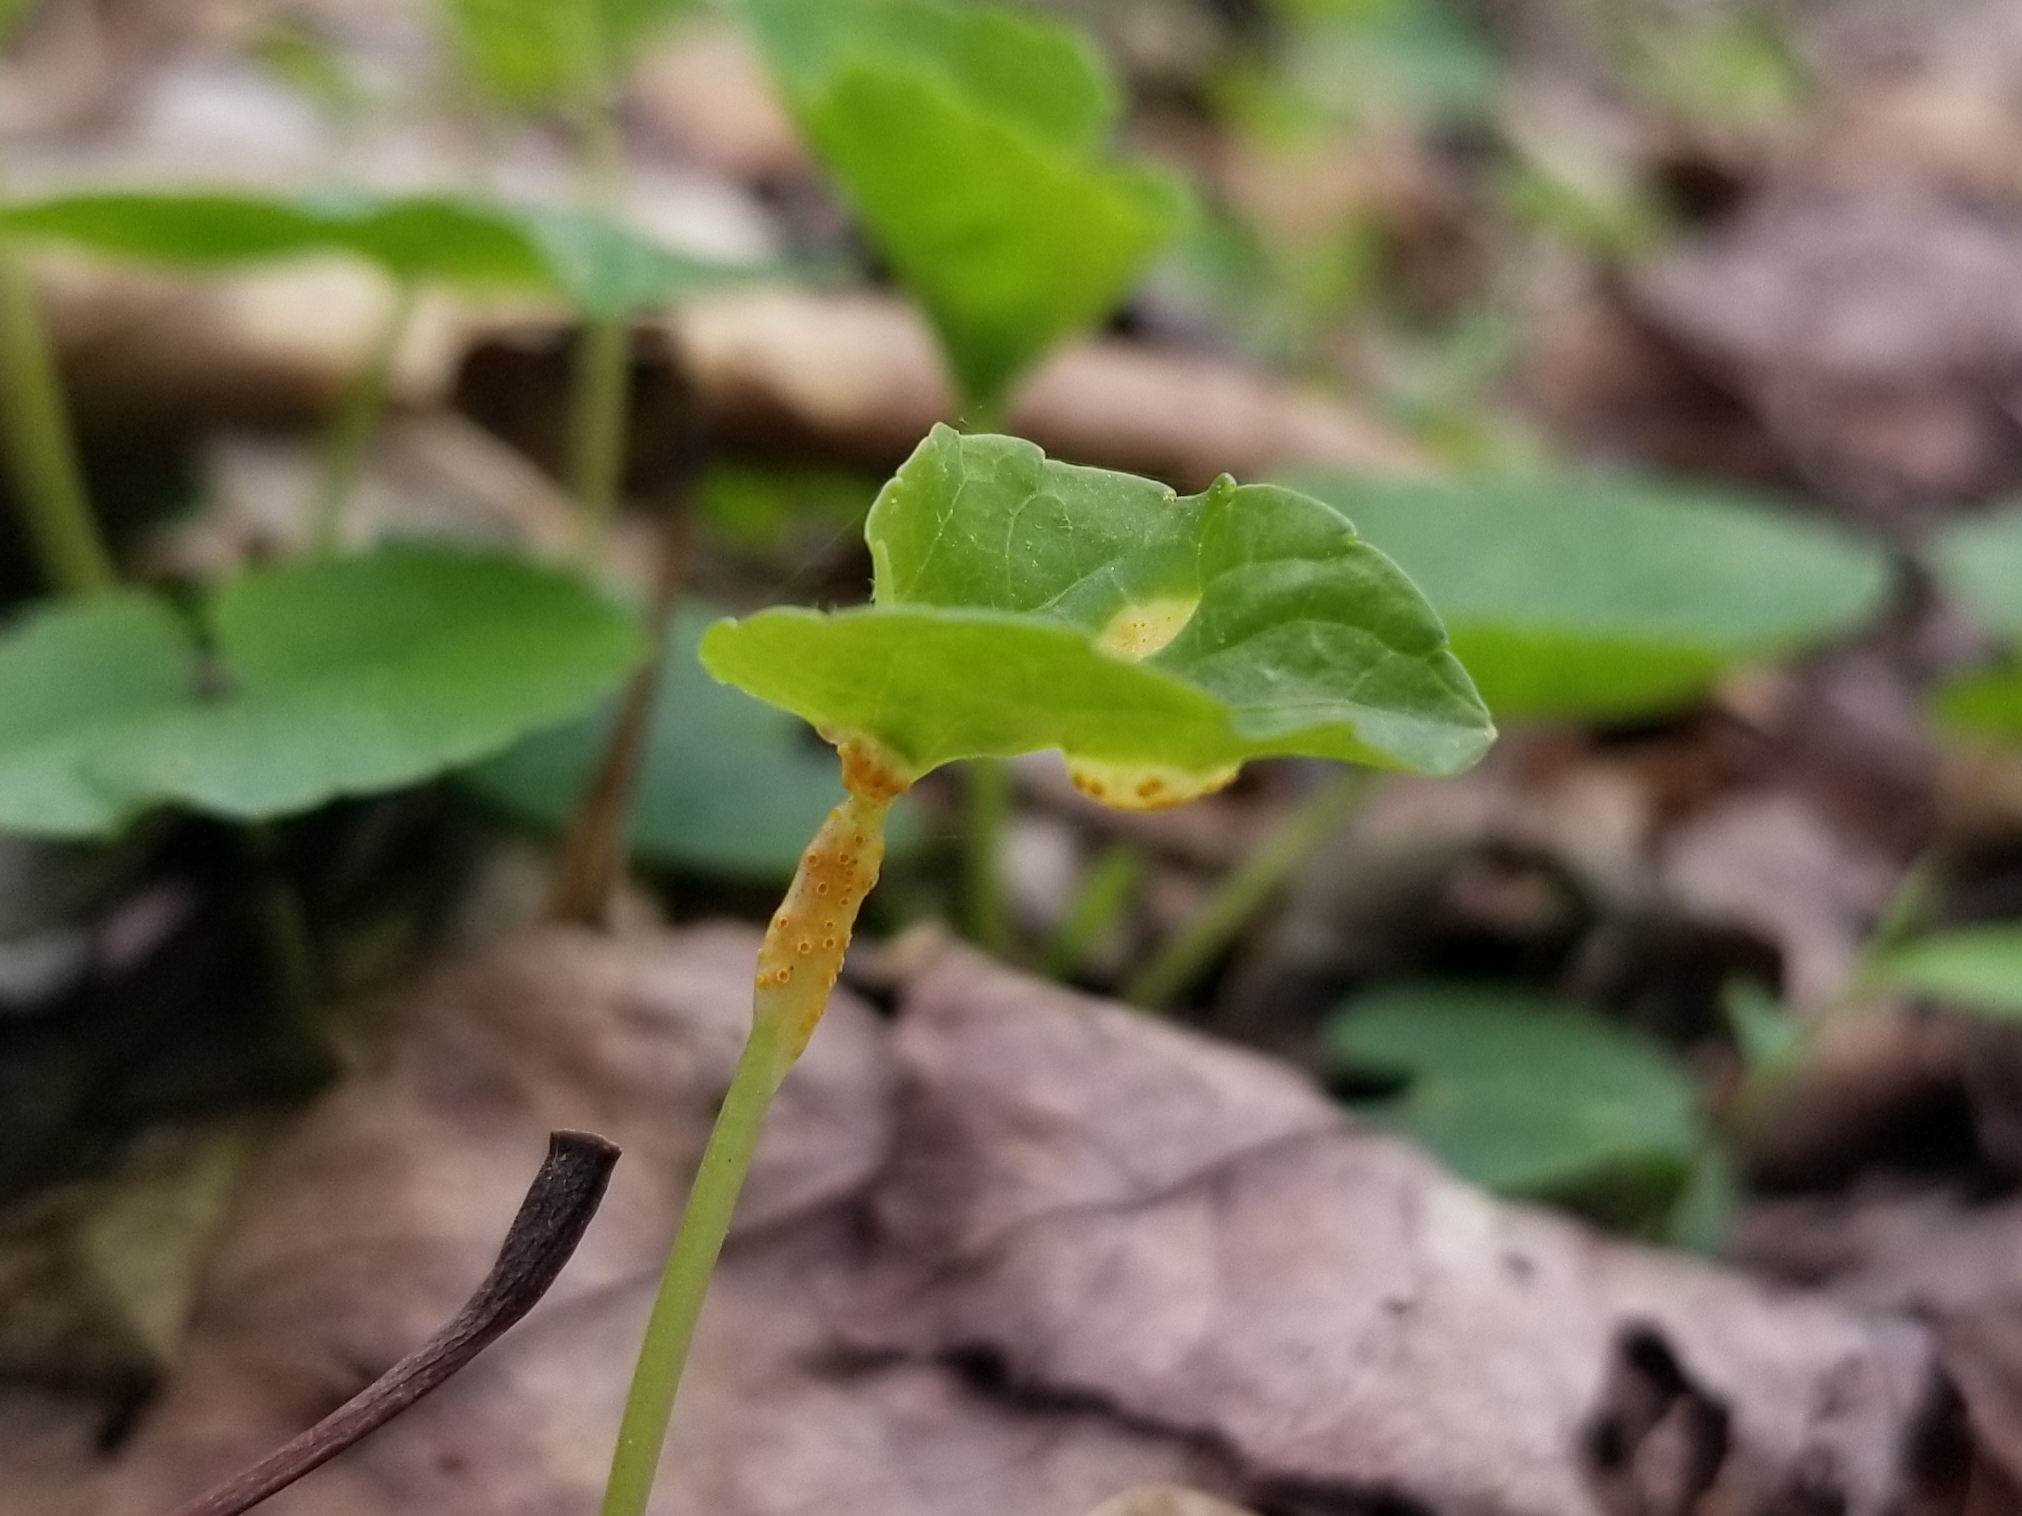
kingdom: Fungi
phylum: Basidiomycota
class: Pucciniomycetes
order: Pucciniales
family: Pucciniaceae
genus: Puccinia
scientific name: Puccinia violae
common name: Violet rust
